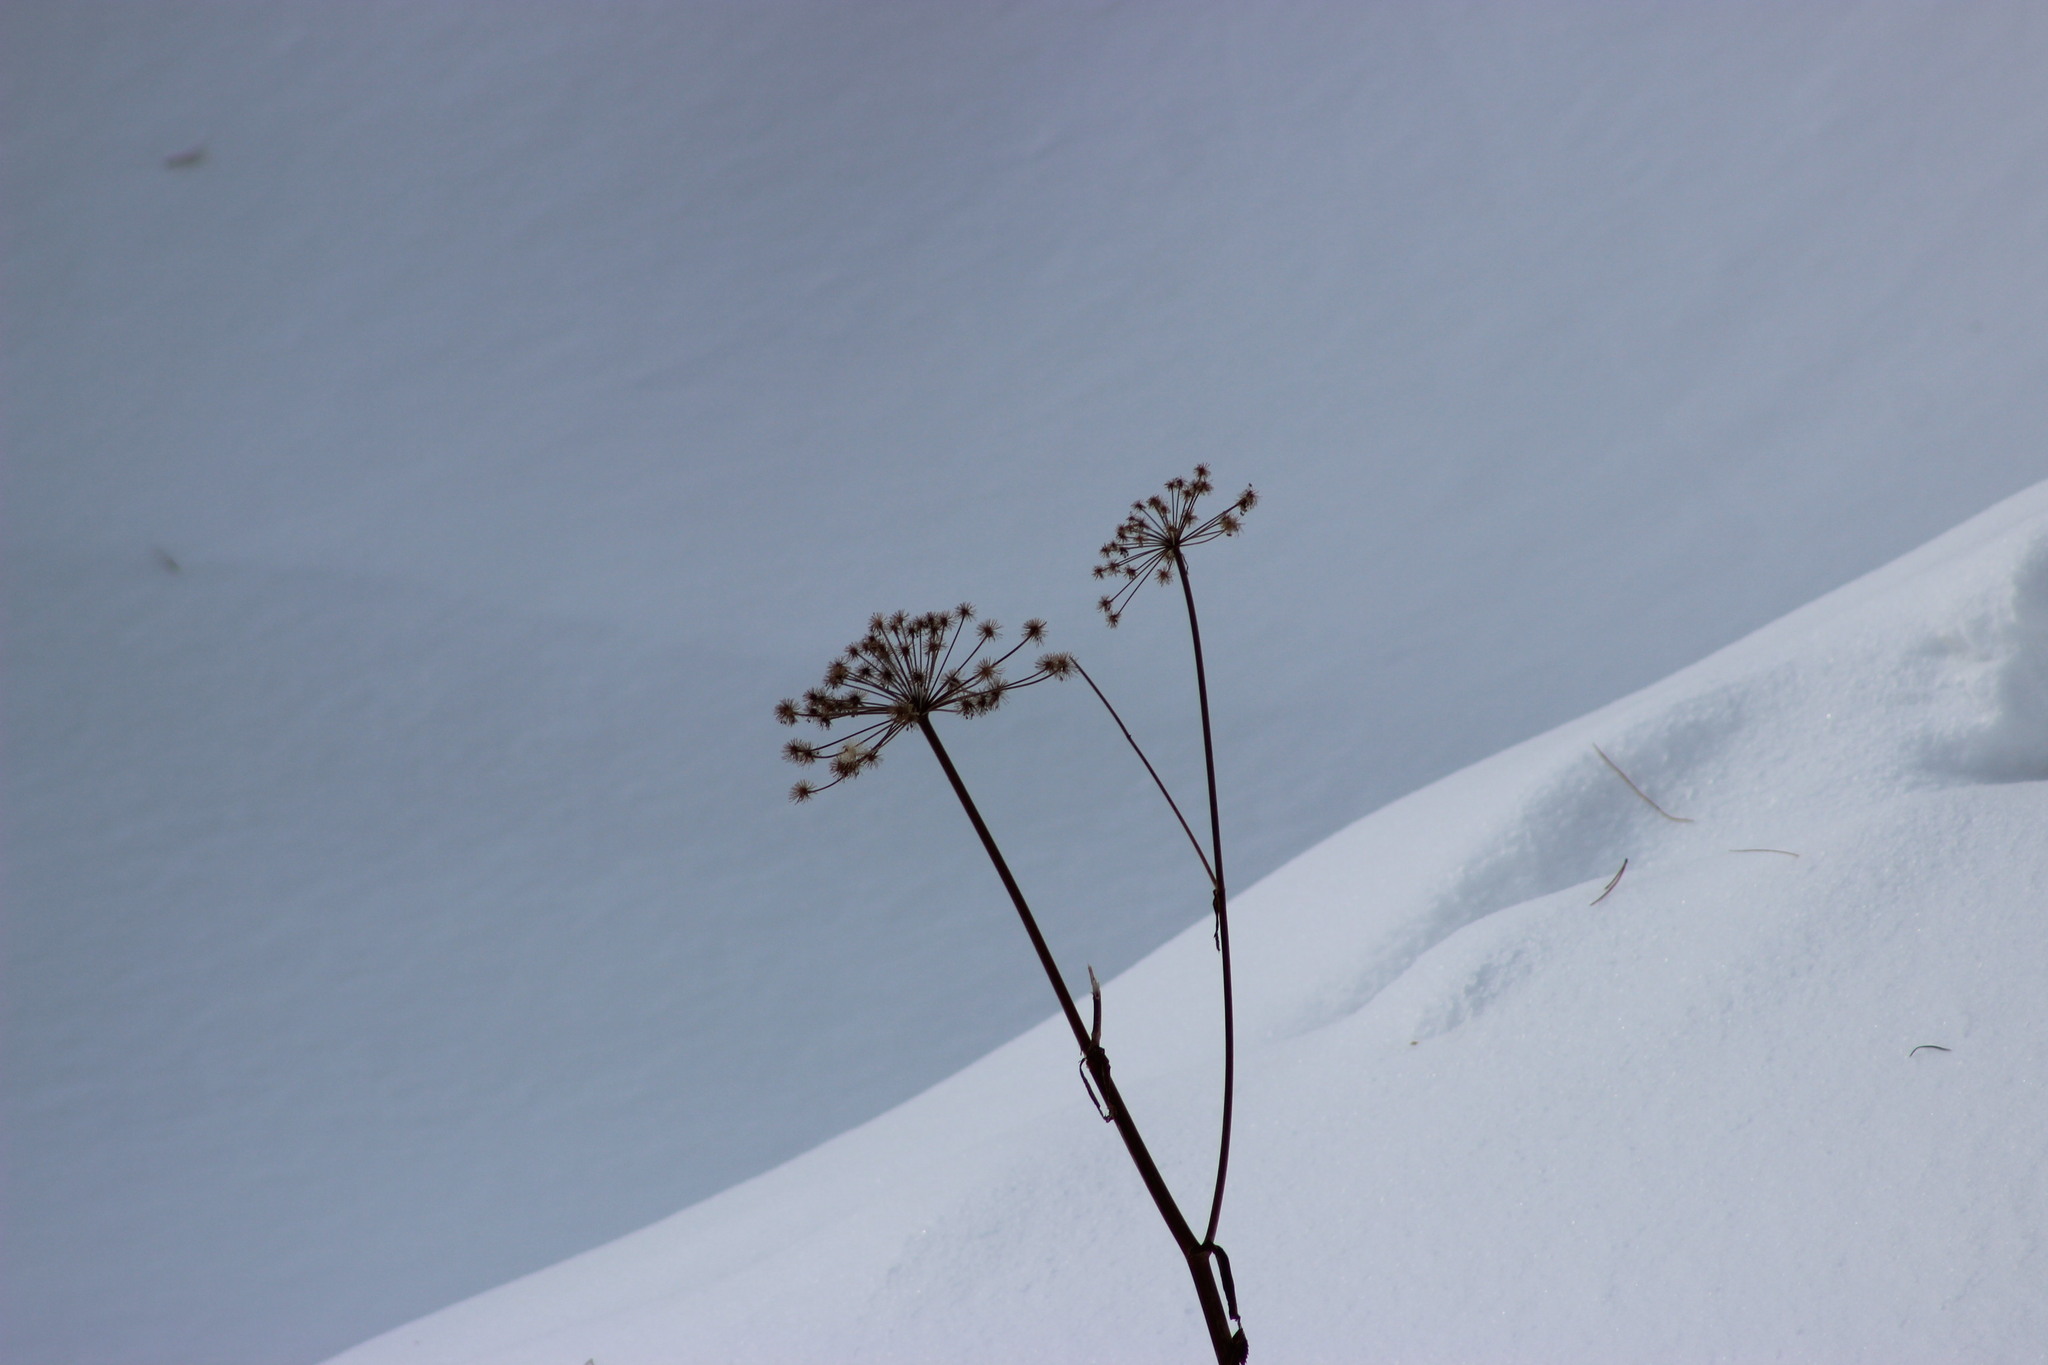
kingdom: Plantae
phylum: Tracheophyta
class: Magnoliopsida
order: Apiales
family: Apiaceae
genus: Angelica
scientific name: Angelica sylvestris
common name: Wild angelica
